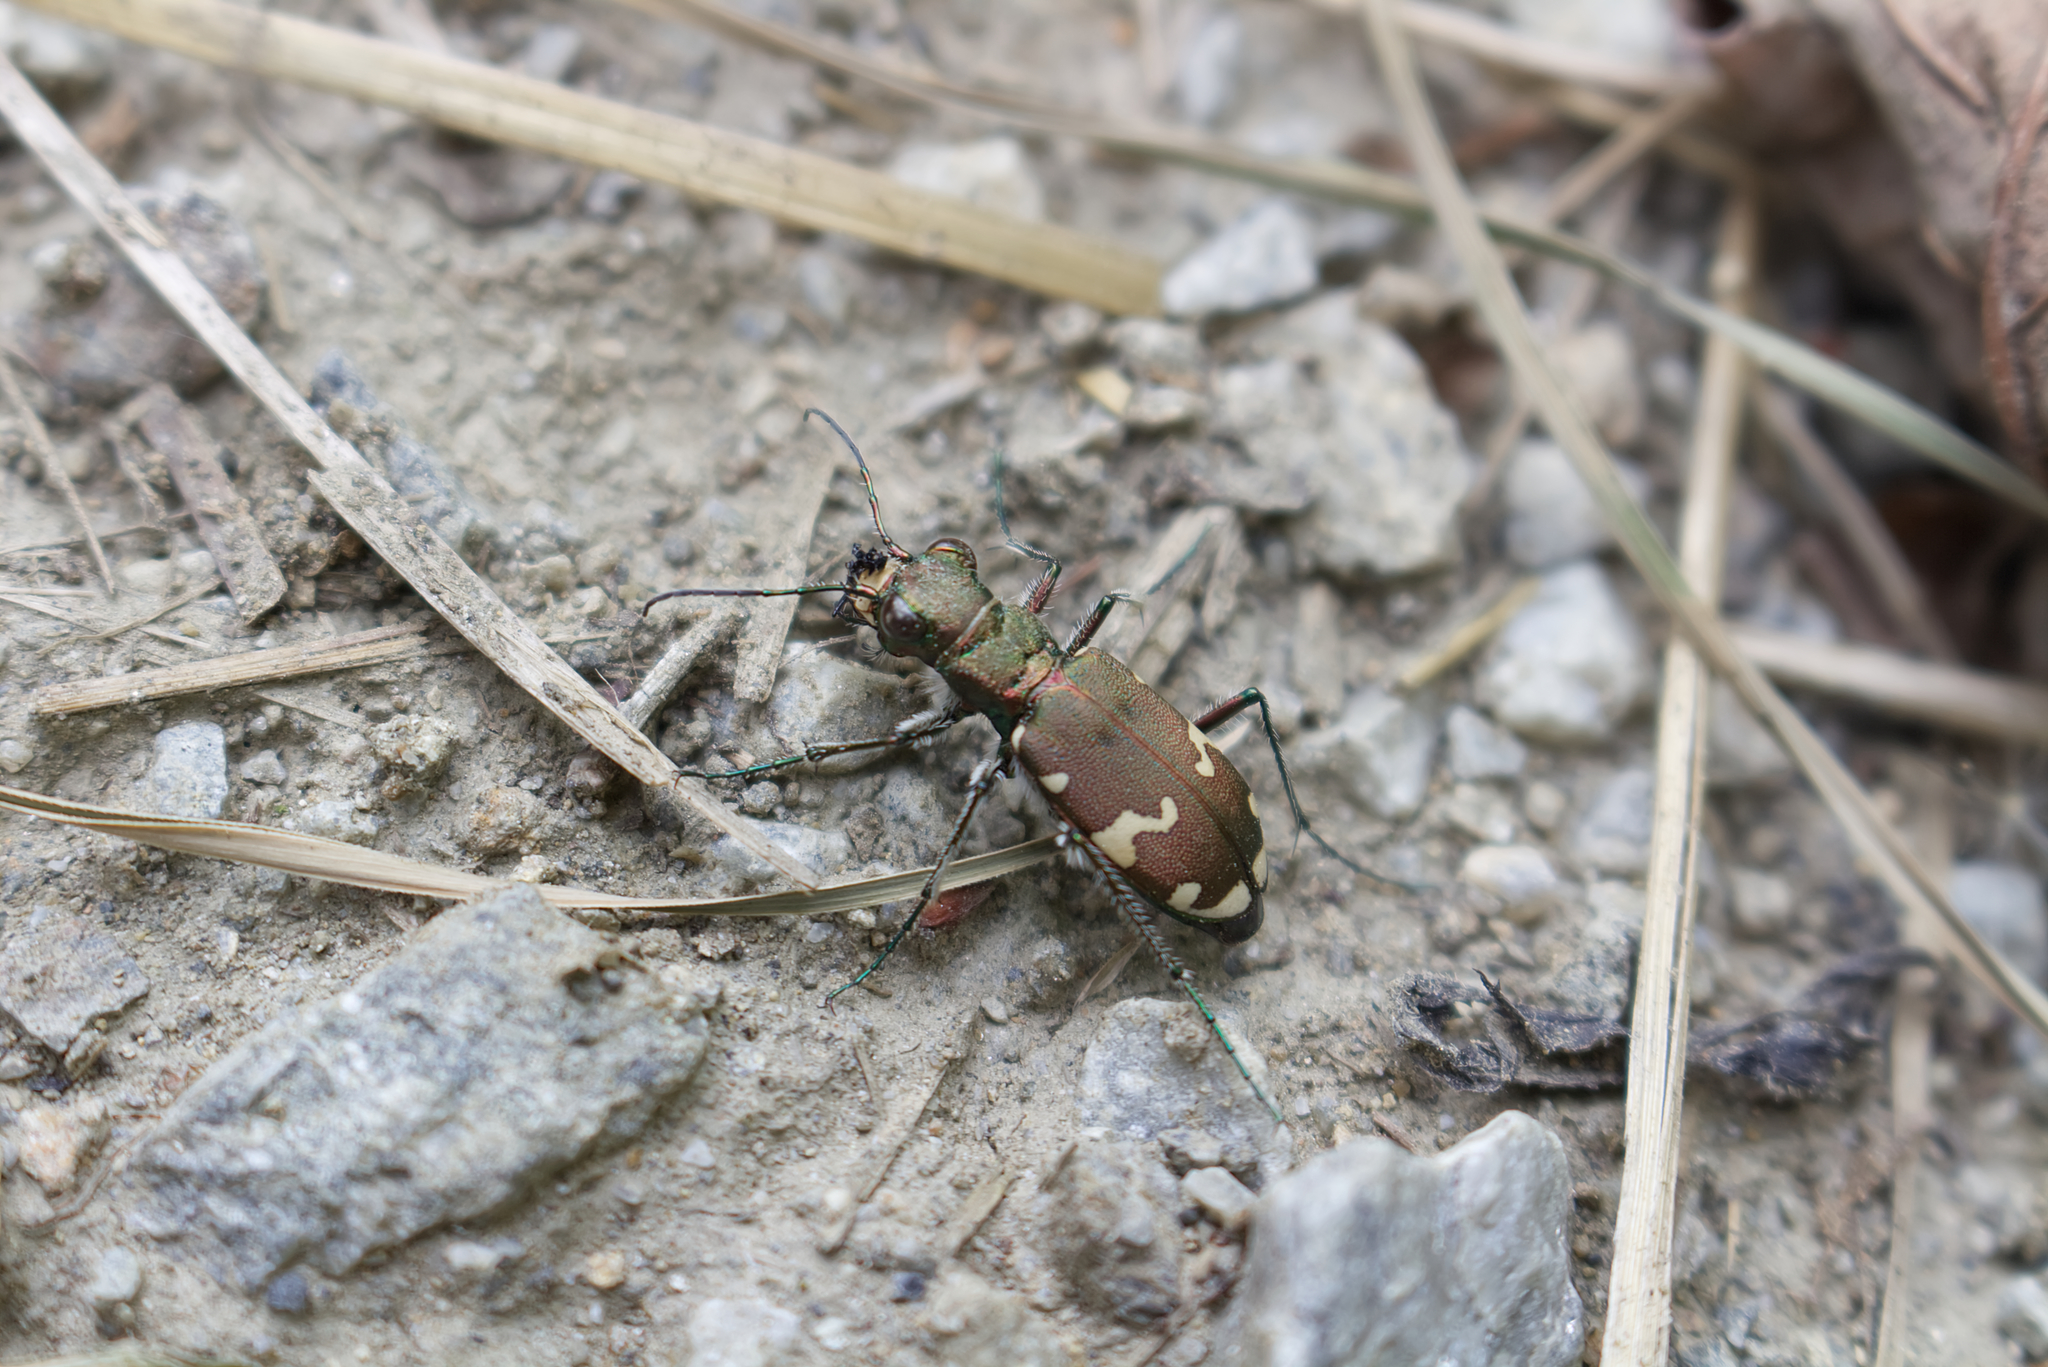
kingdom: Animalia
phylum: Arthropoda
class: Insecta
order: Coleoptera
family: Carabidae
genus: Cicindela
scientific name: Cicindela sylvicola
